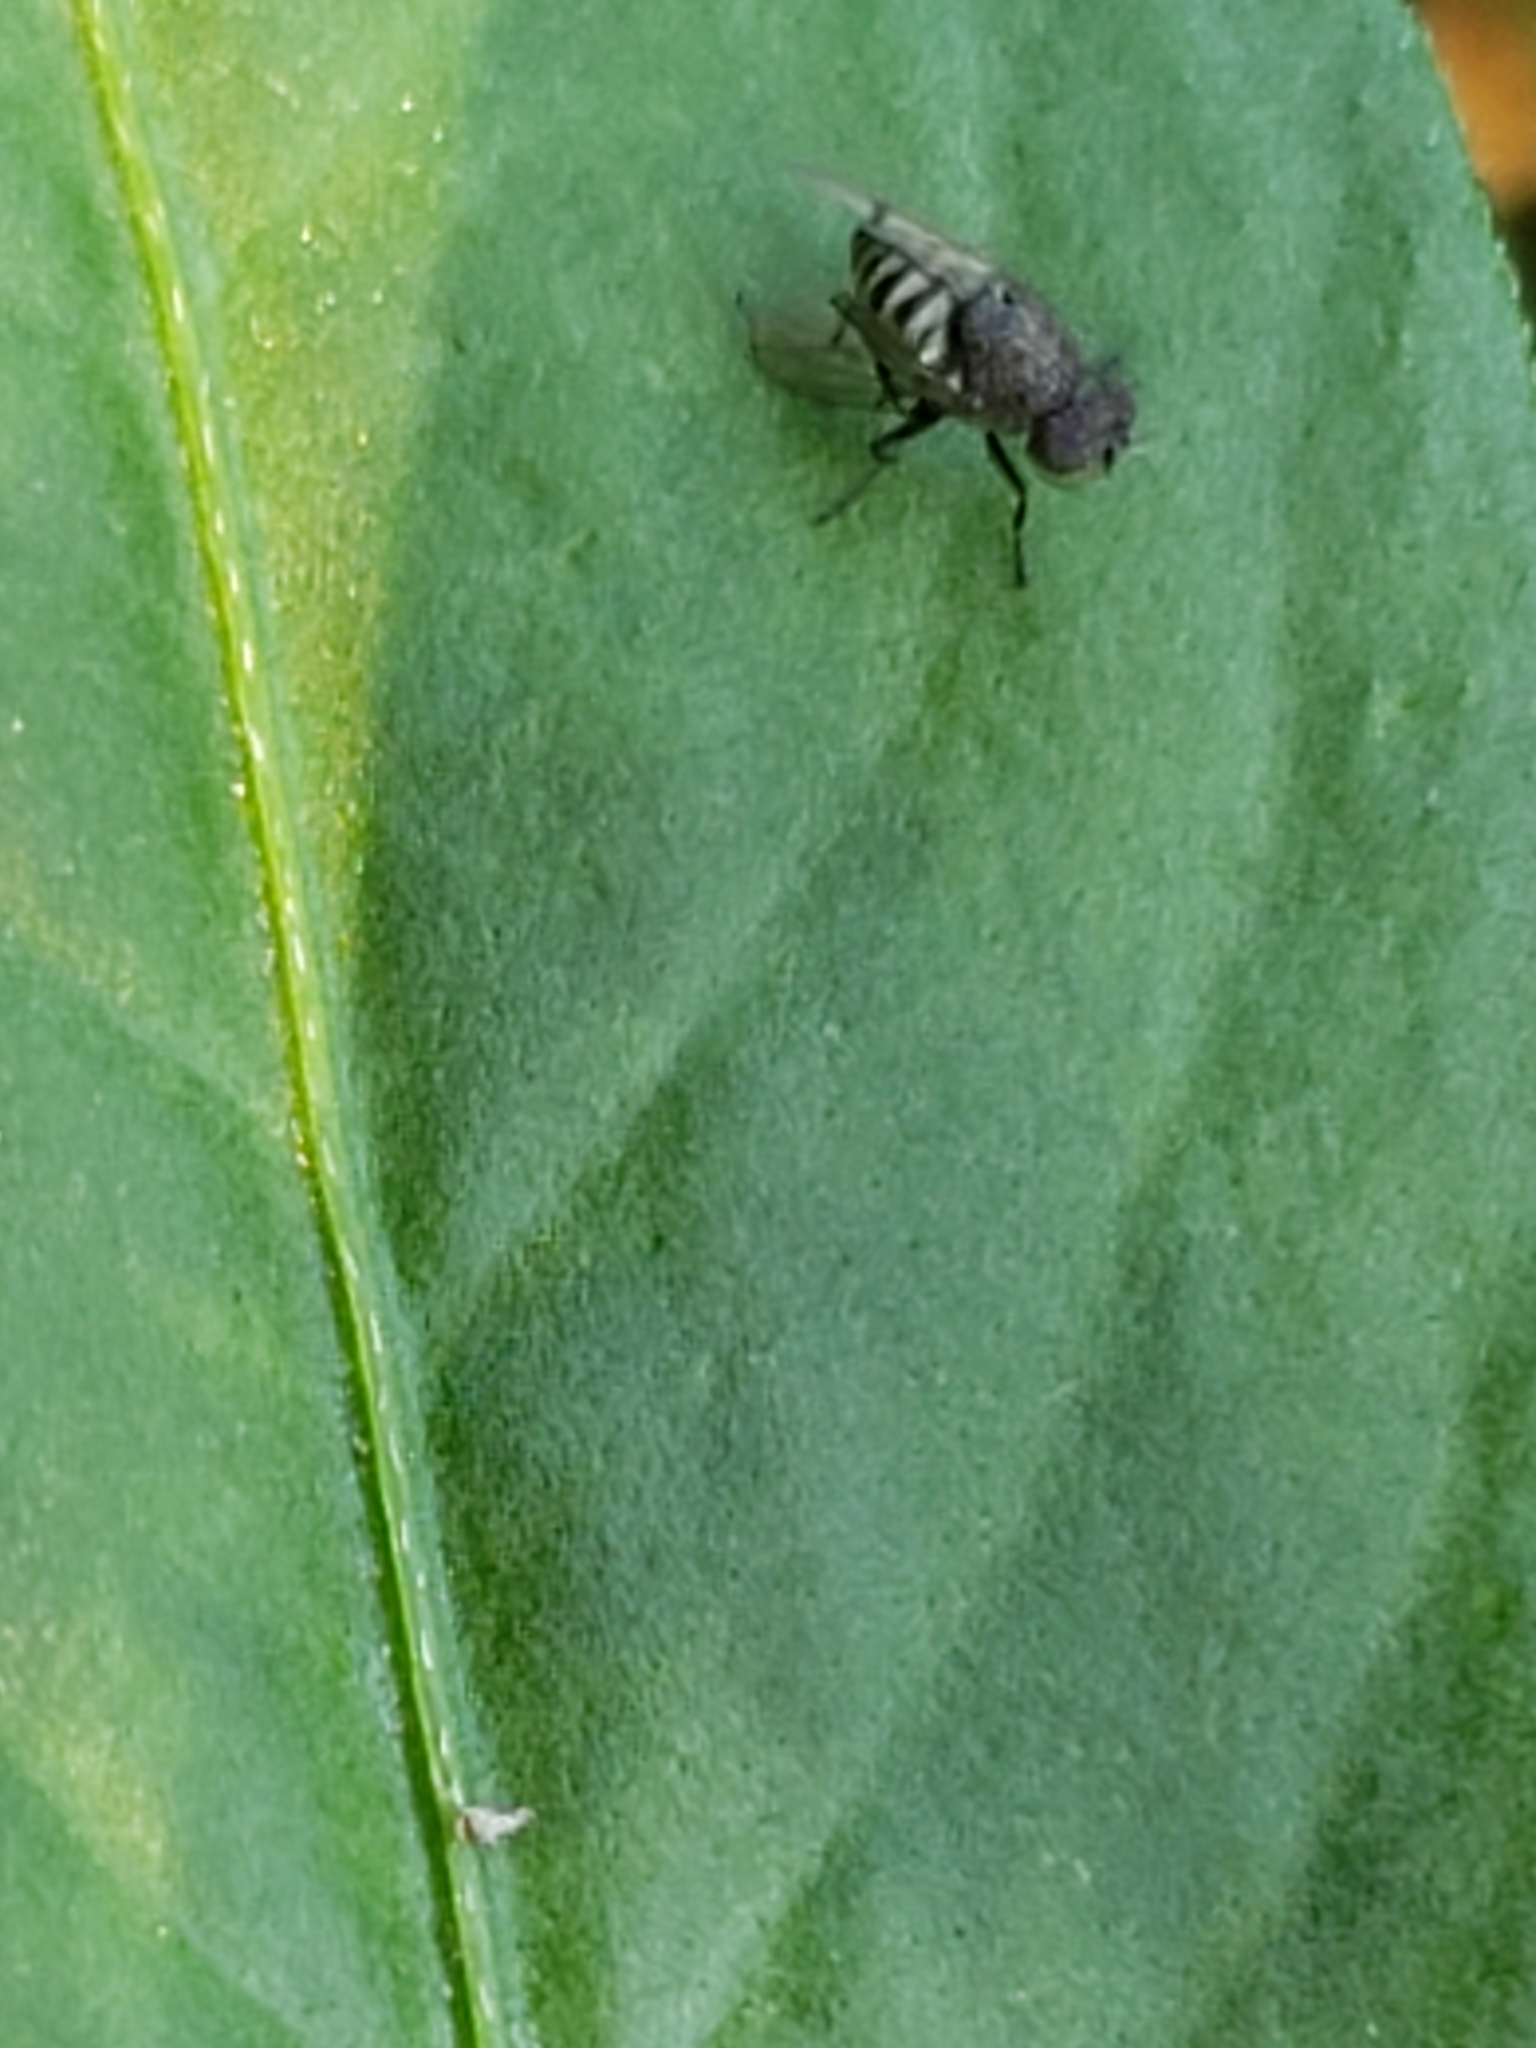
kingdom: Animalia
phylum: Arthropoda
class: Insecta
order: Diptera
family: Ephydridae
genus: Paralimna
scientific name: Paralimna punctipennis
